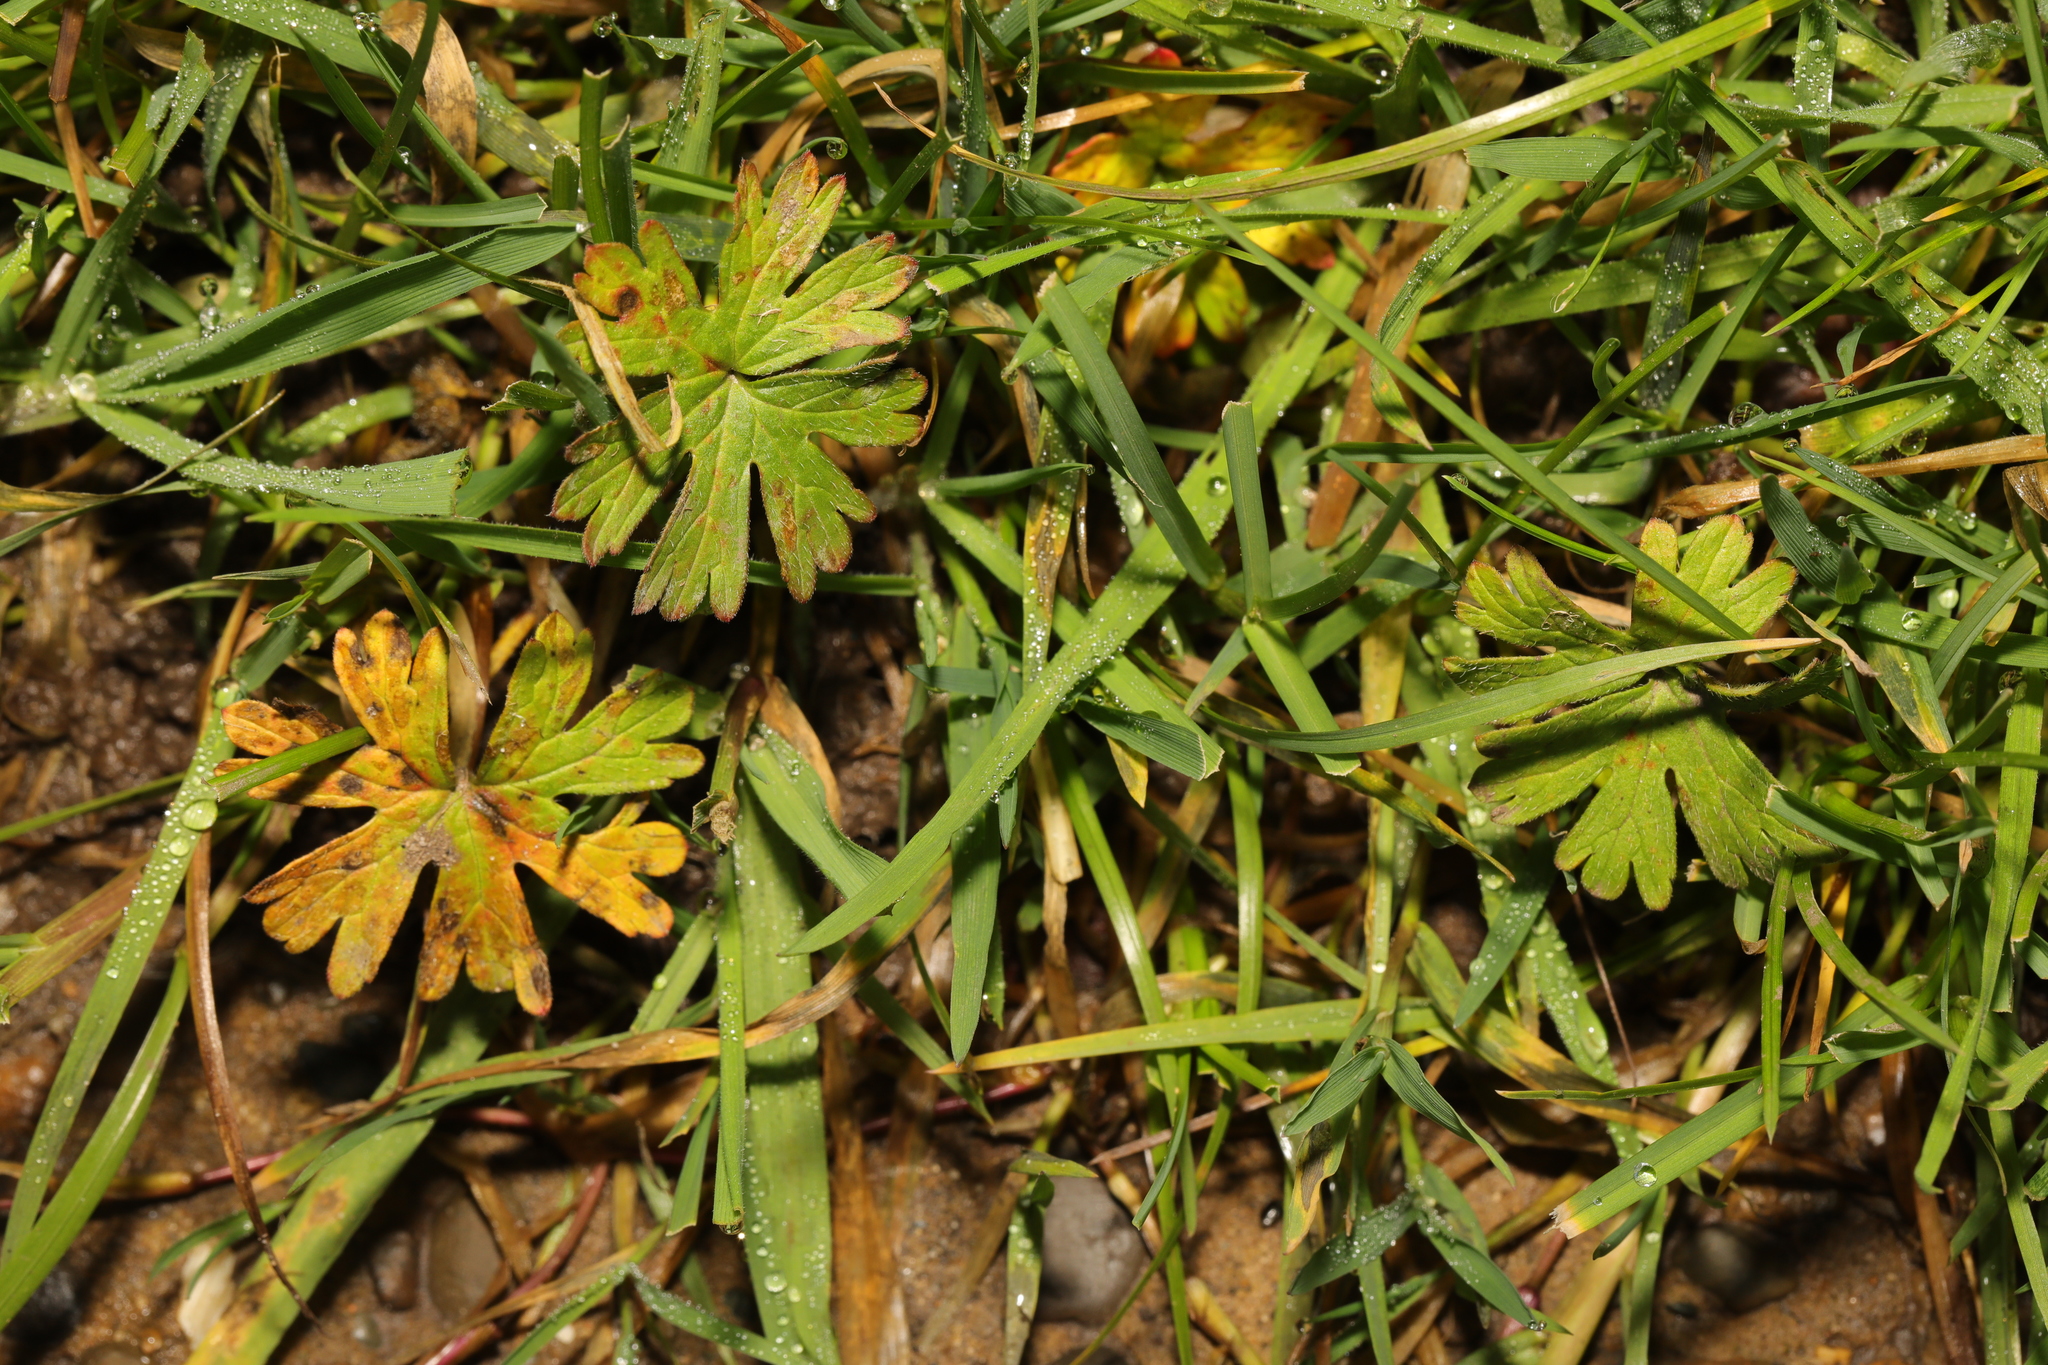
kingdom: Plantae
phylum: Tracheophyta
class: Magnoliopsida
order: Geraniales
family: Geraniaceae
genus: Geranium
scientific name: Geranium dissectum
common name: Cut-leaved crane's-bill
